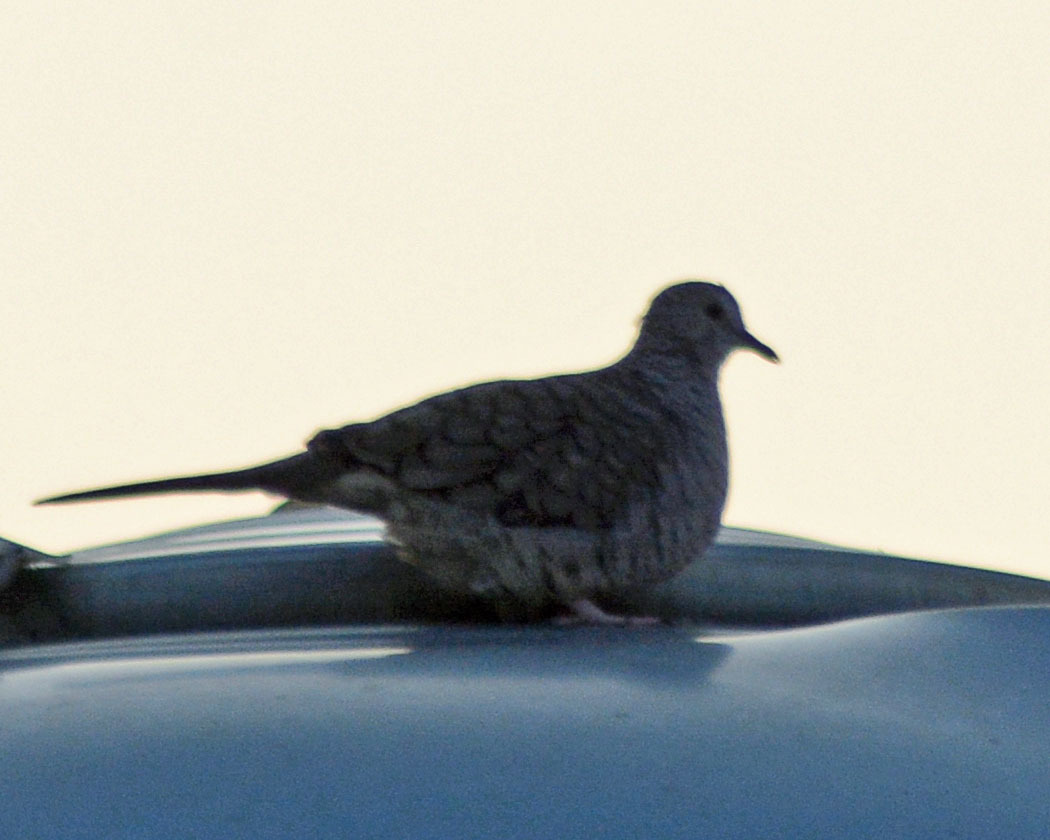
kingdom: Animalia
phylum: Chordata
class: Aves
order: Columbiformes
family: Columbidae
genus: Columbina
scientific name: Columbina inca
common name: Inca dove
